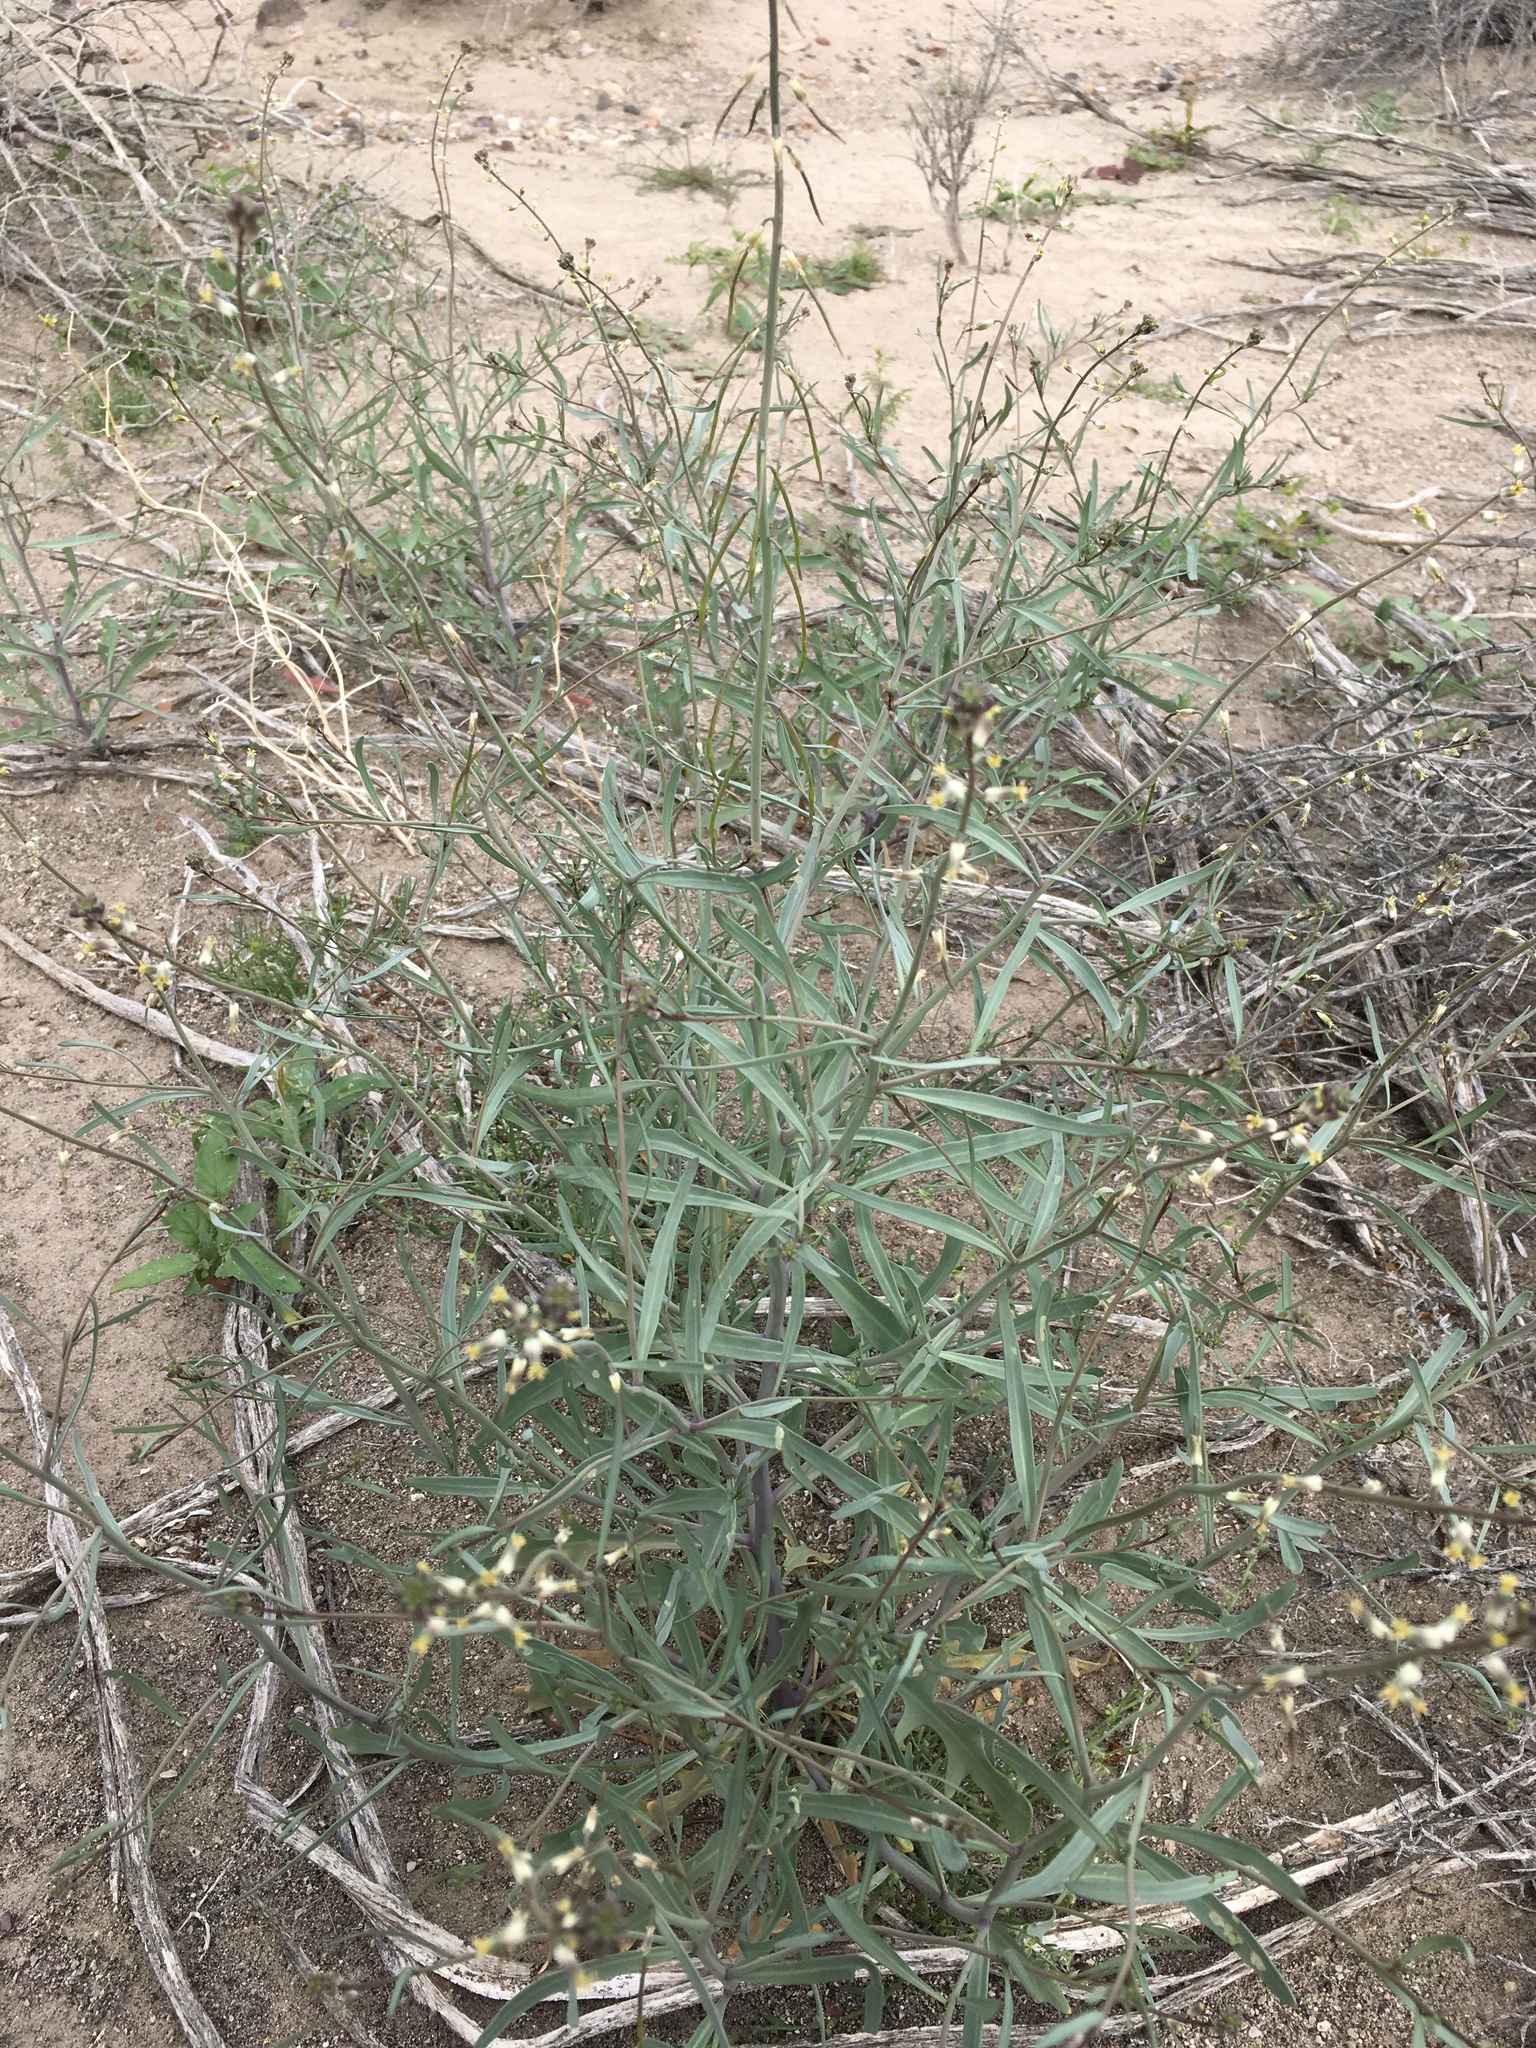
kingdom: Plantae
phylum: Tracheophyta
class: Magnoliopsida
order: Brassicales
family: Brassicaceae
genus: Streptanthus
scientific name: Streptanthus longirostris
